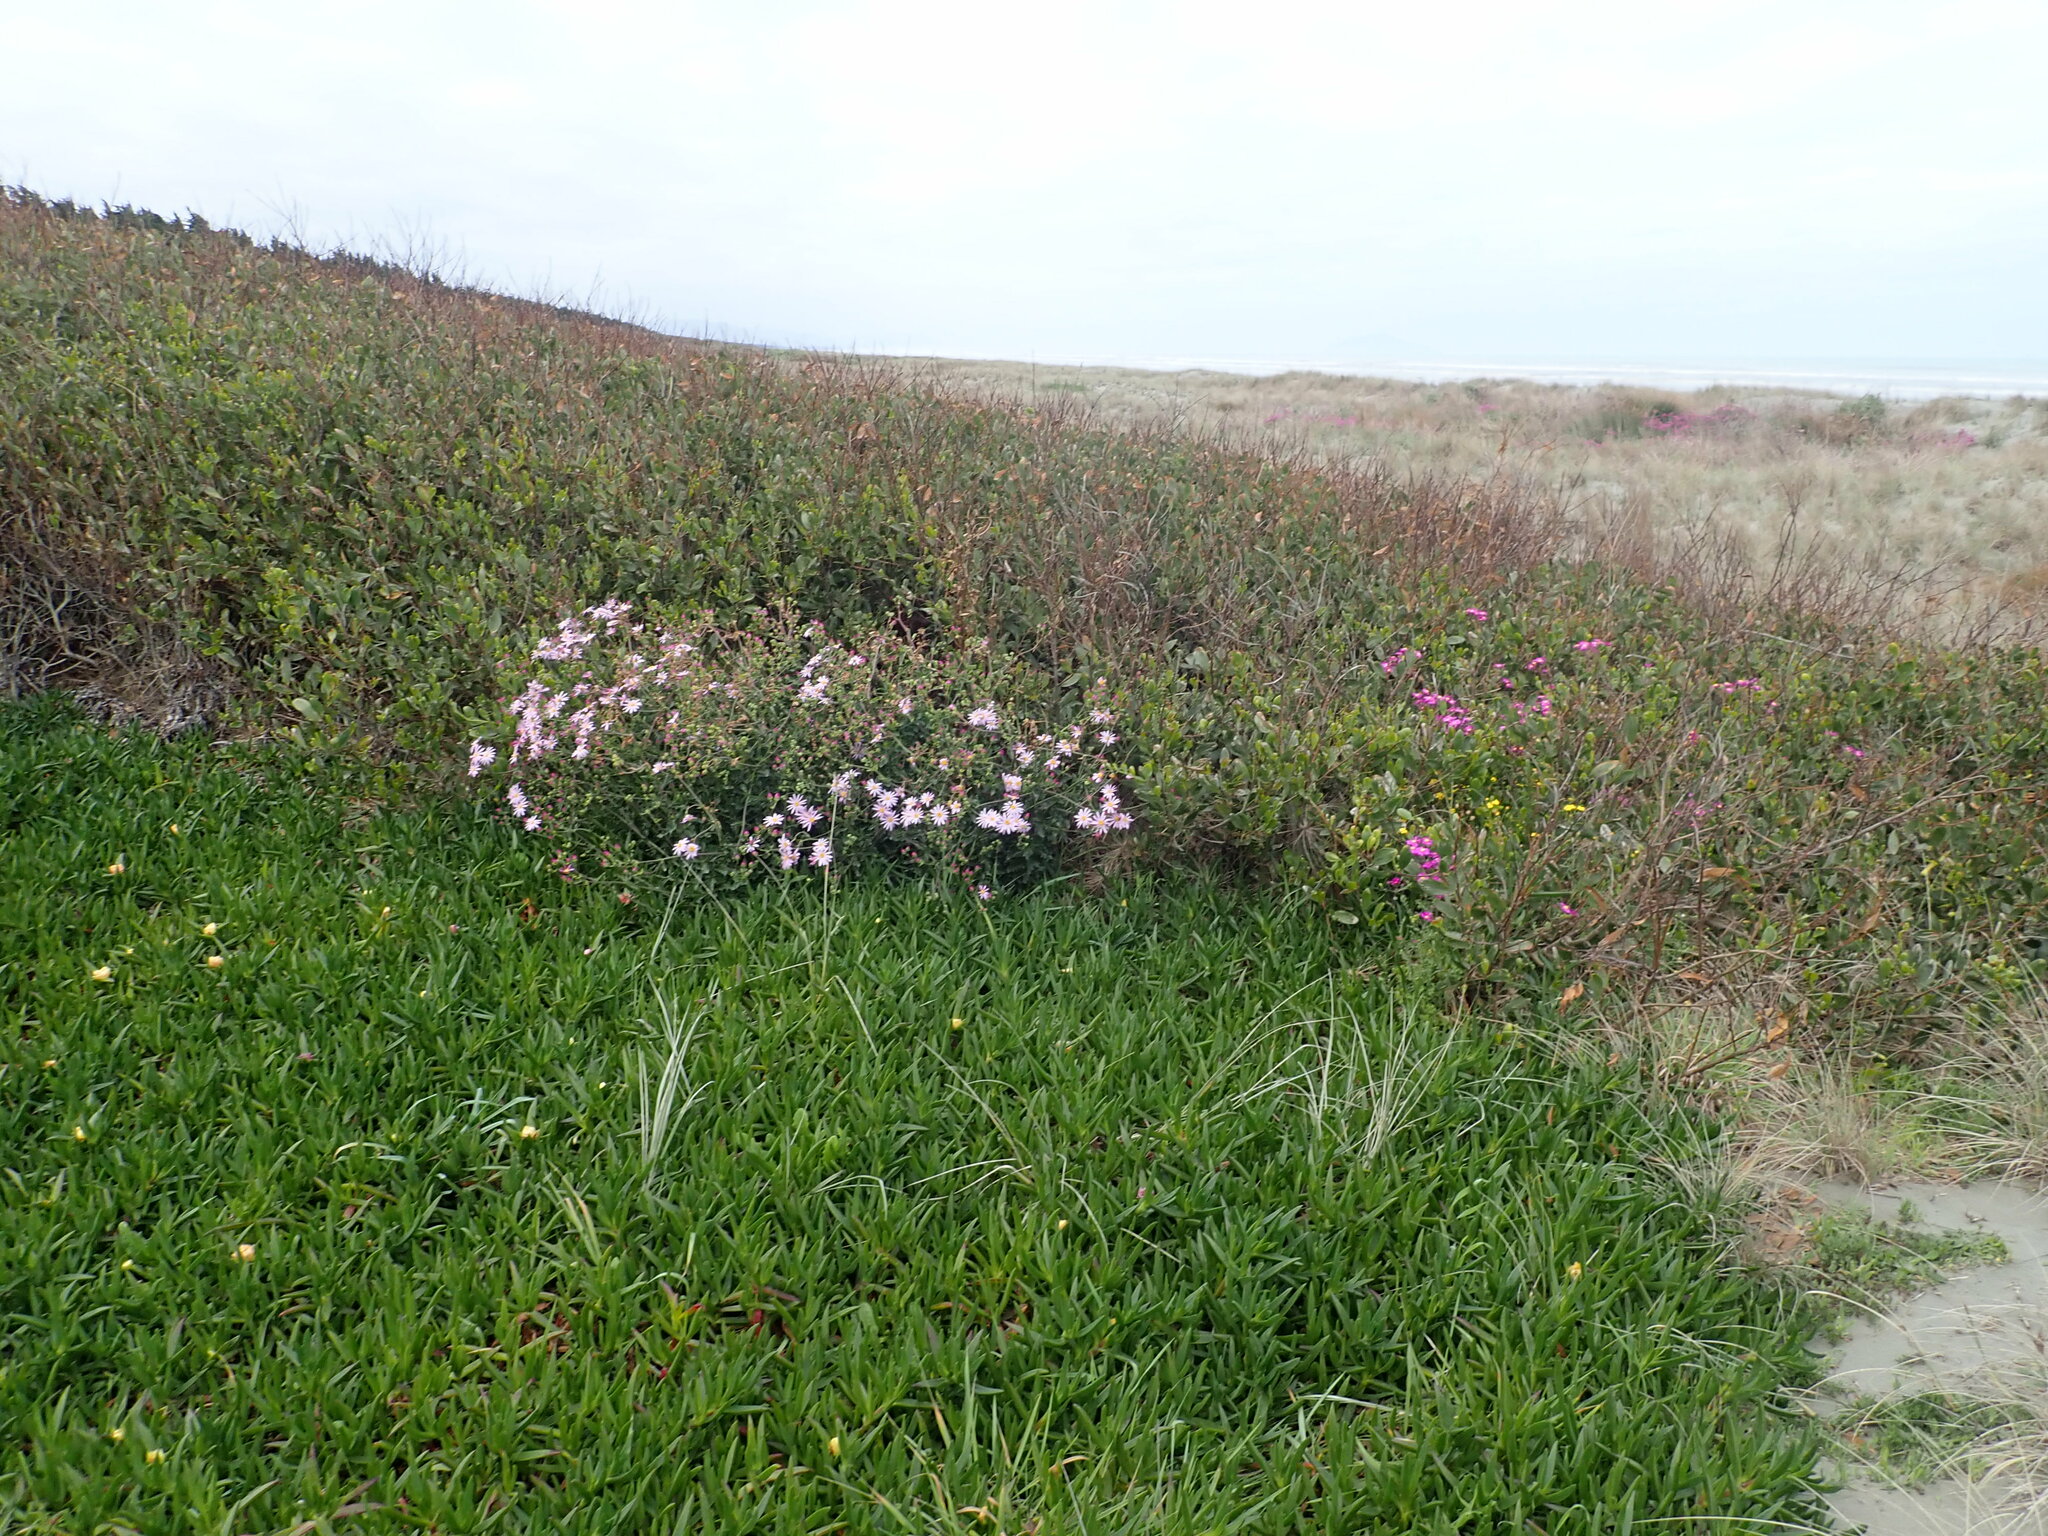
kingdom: Plantae
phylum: Tracheophyta
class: Magnoliopsida
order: Asterales
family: Asteraceae
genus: Senecio
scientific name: Senecio glastifolius
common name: Woad-leaved ragwort
